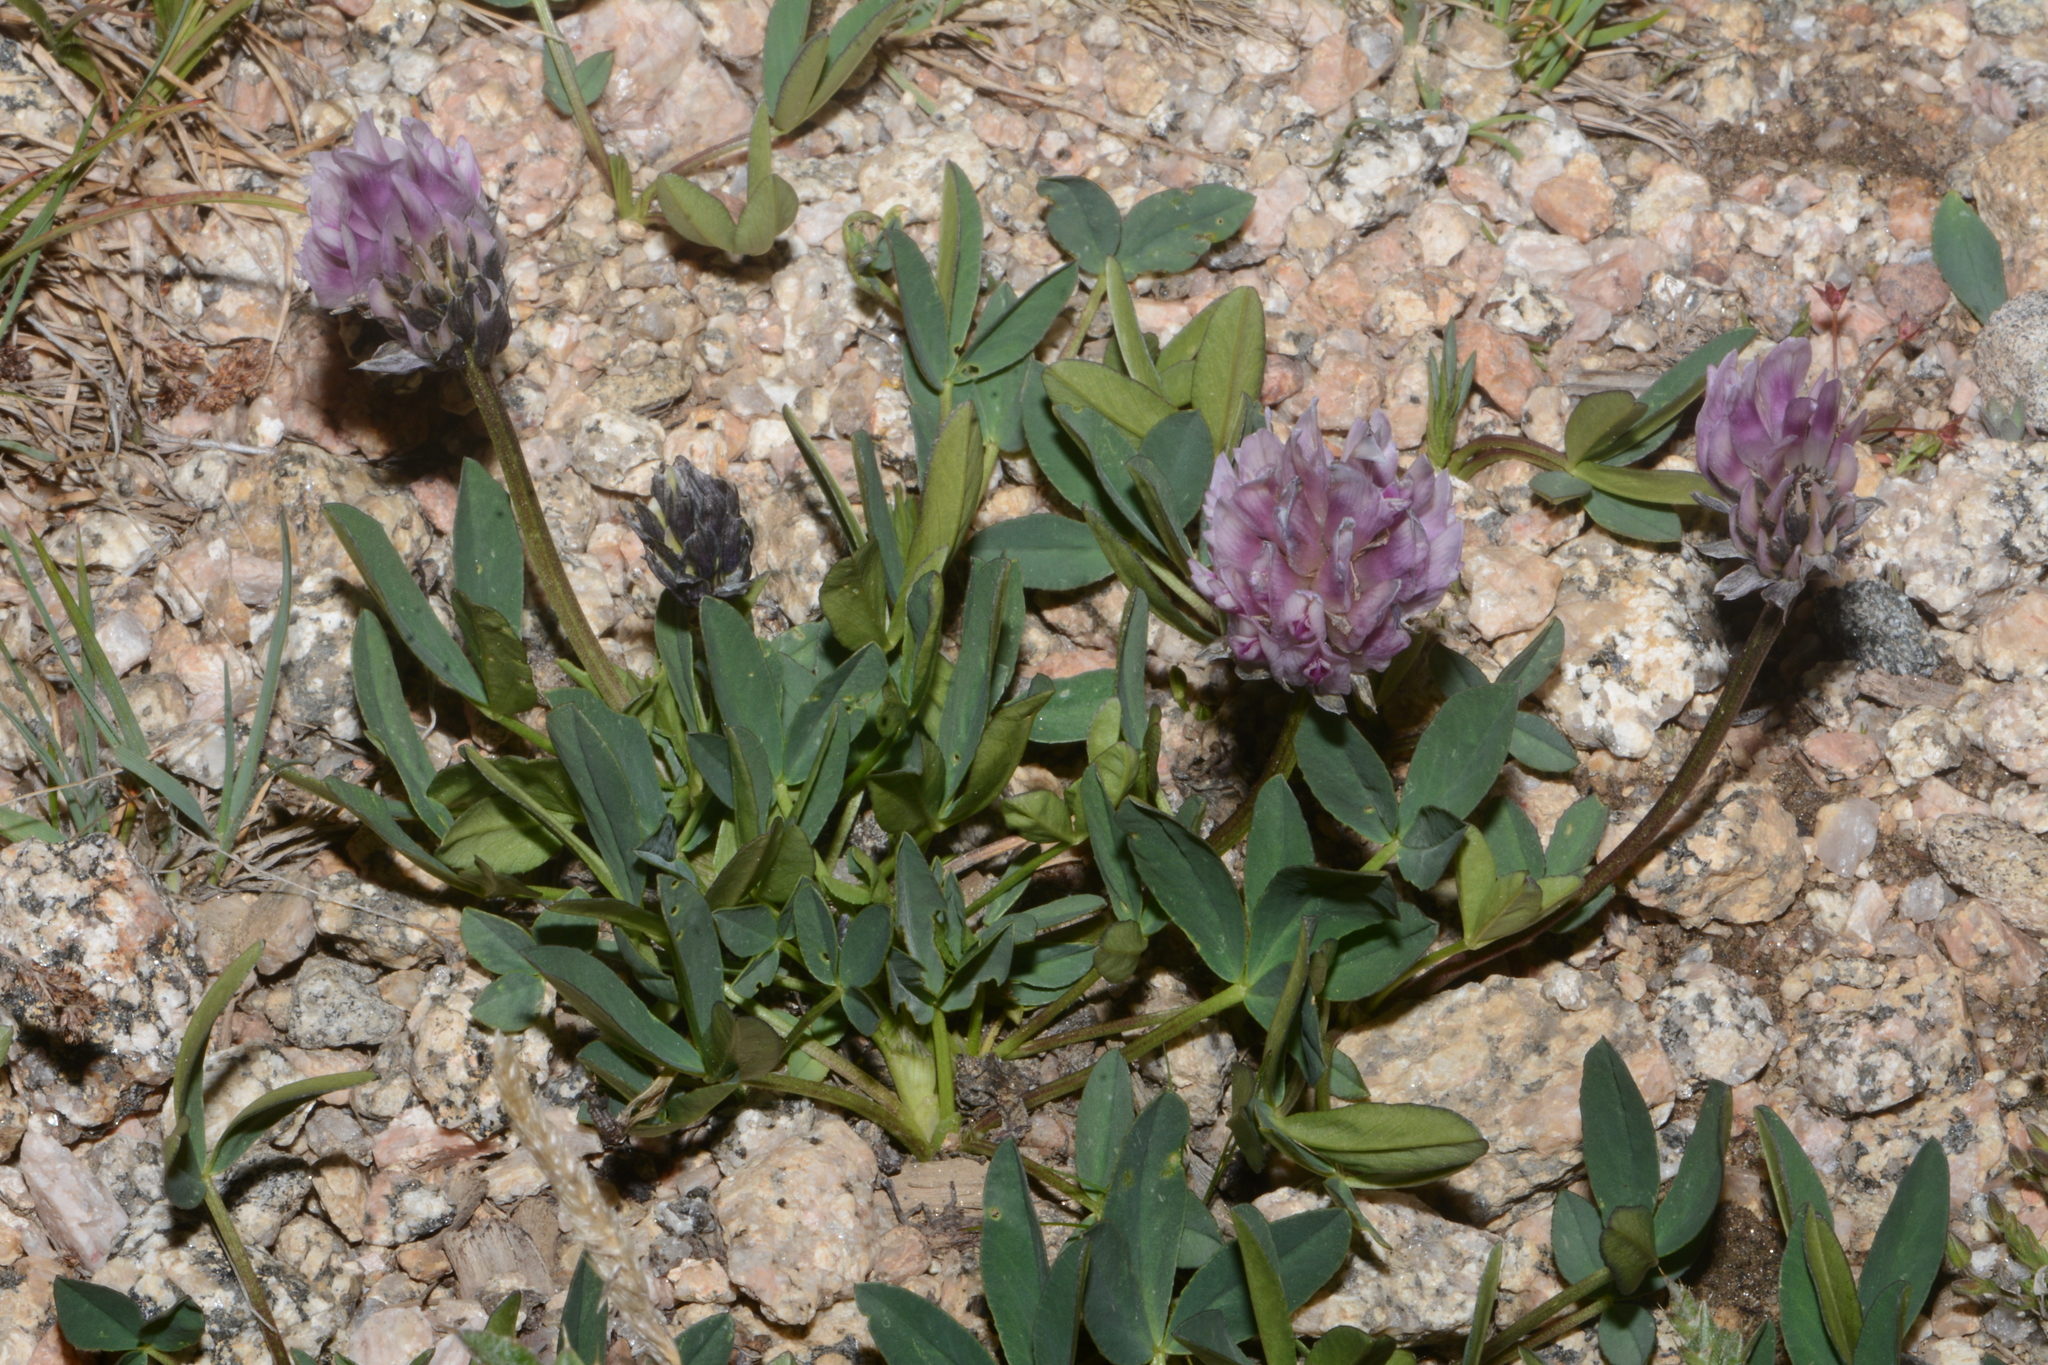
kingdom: Plantae
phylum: Tracheophyta
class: Magnoliopsida
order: Fabales
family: Fabaceae
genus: Trifolium
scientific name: Trifolium parryi
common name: Parry's clover
